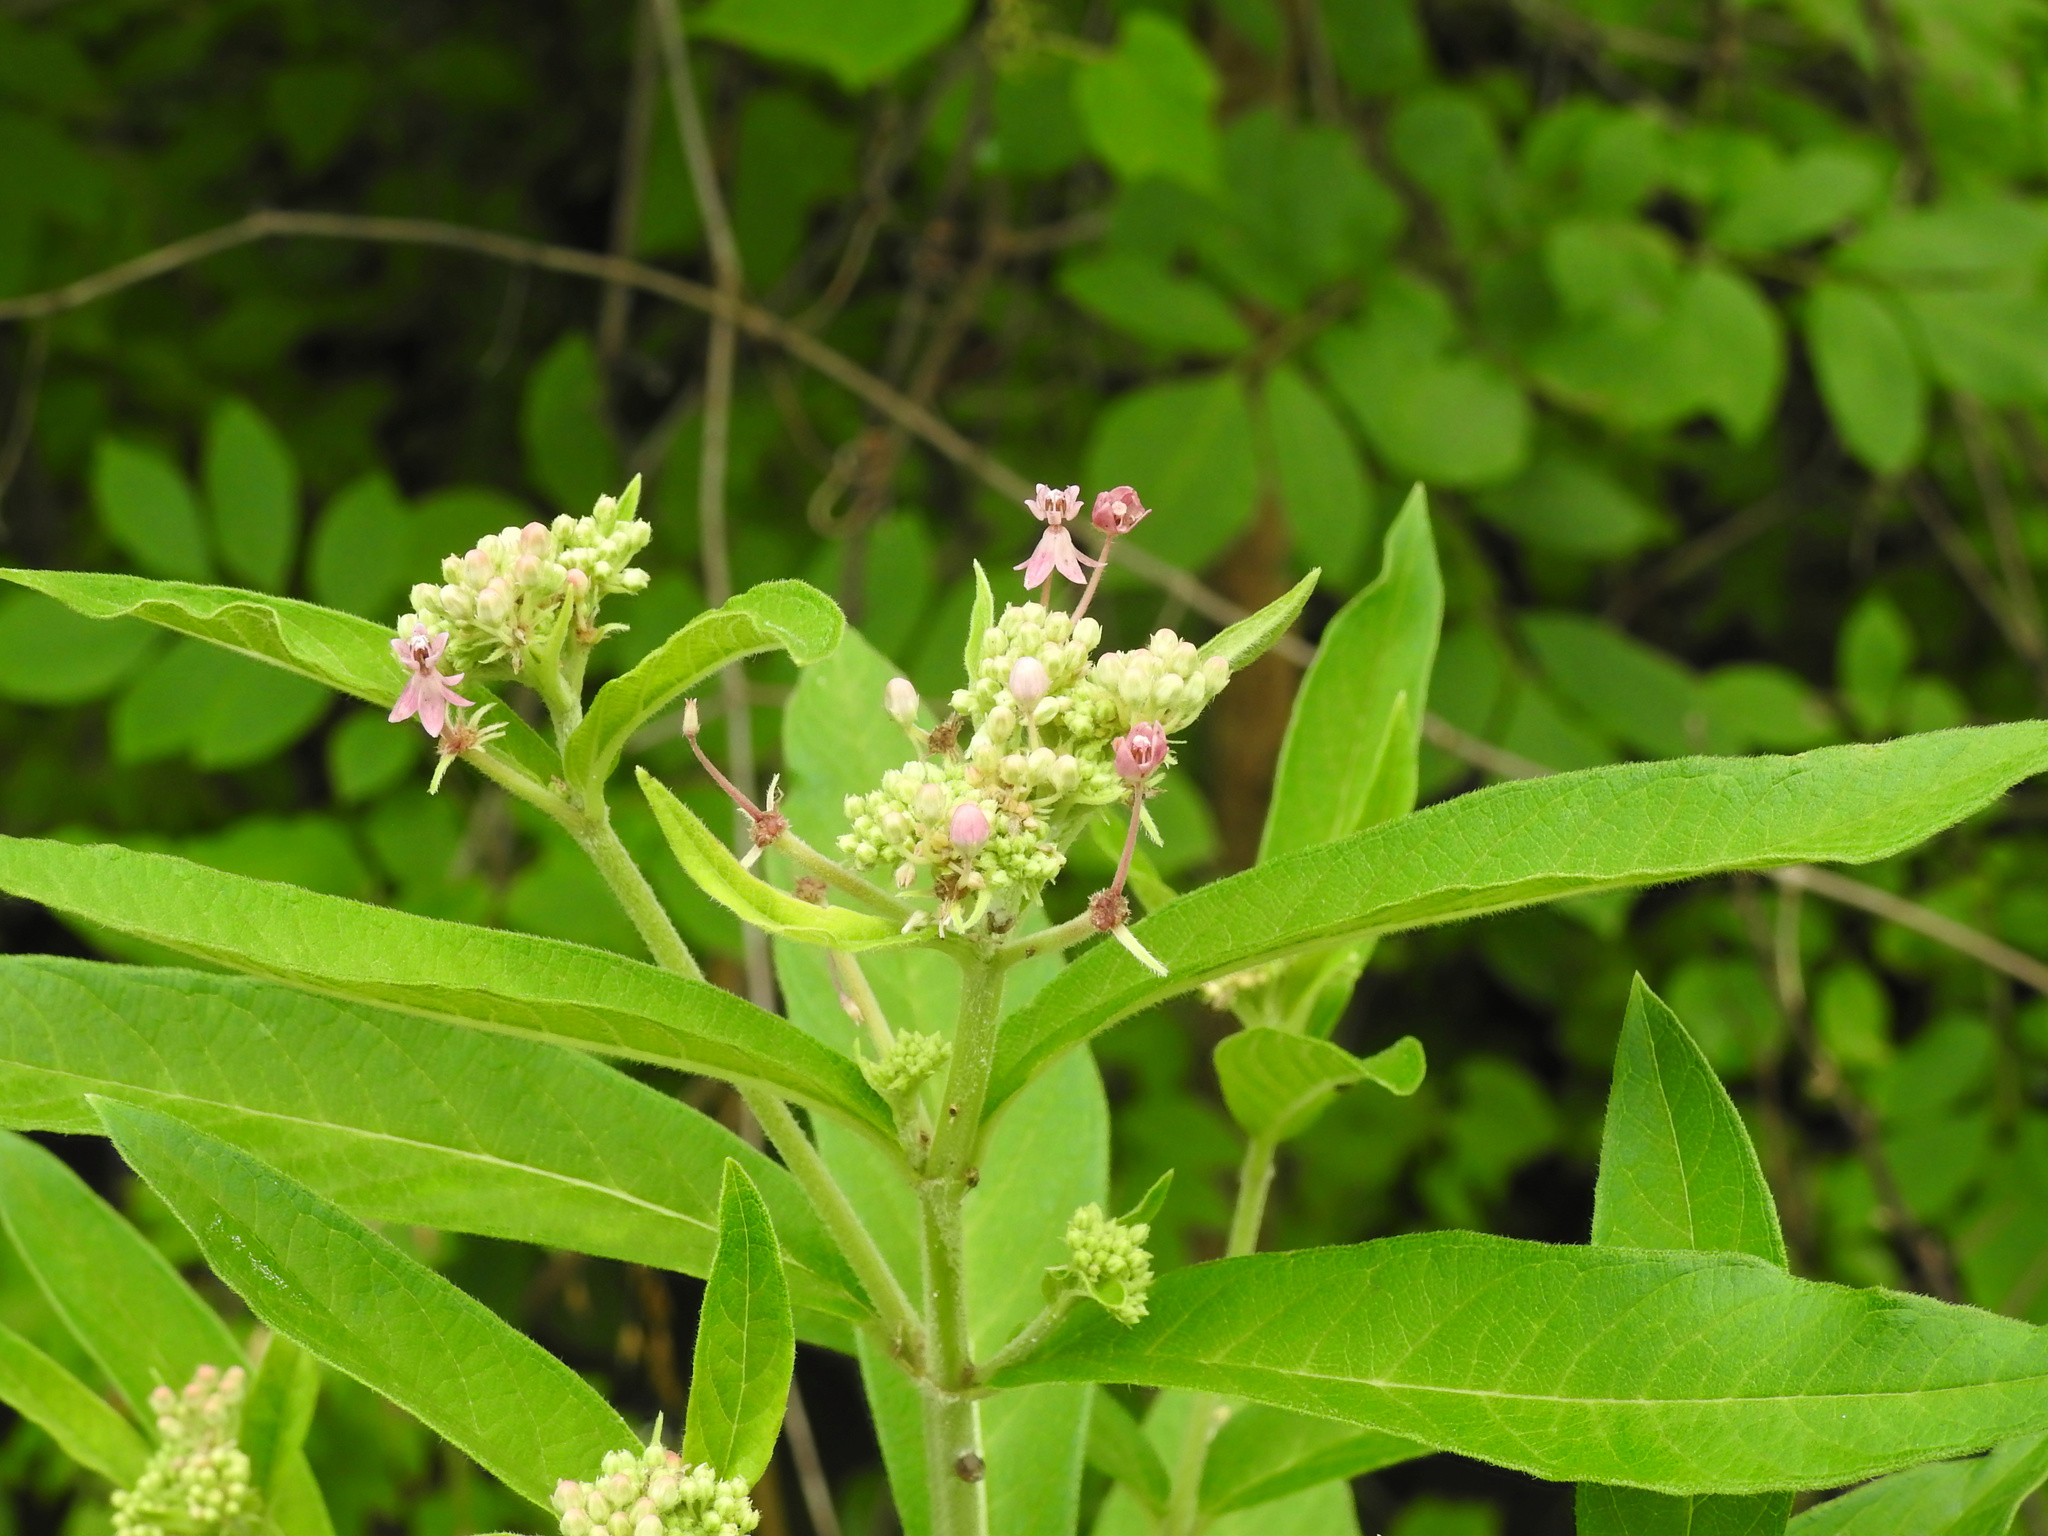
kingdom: Plantae
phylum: Tracheophyta
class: Magnoliopsida
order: Gentianales
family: Apocynaceae
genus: Asclepias
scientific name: Asclepias incarnata
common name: Swamp milkweed
